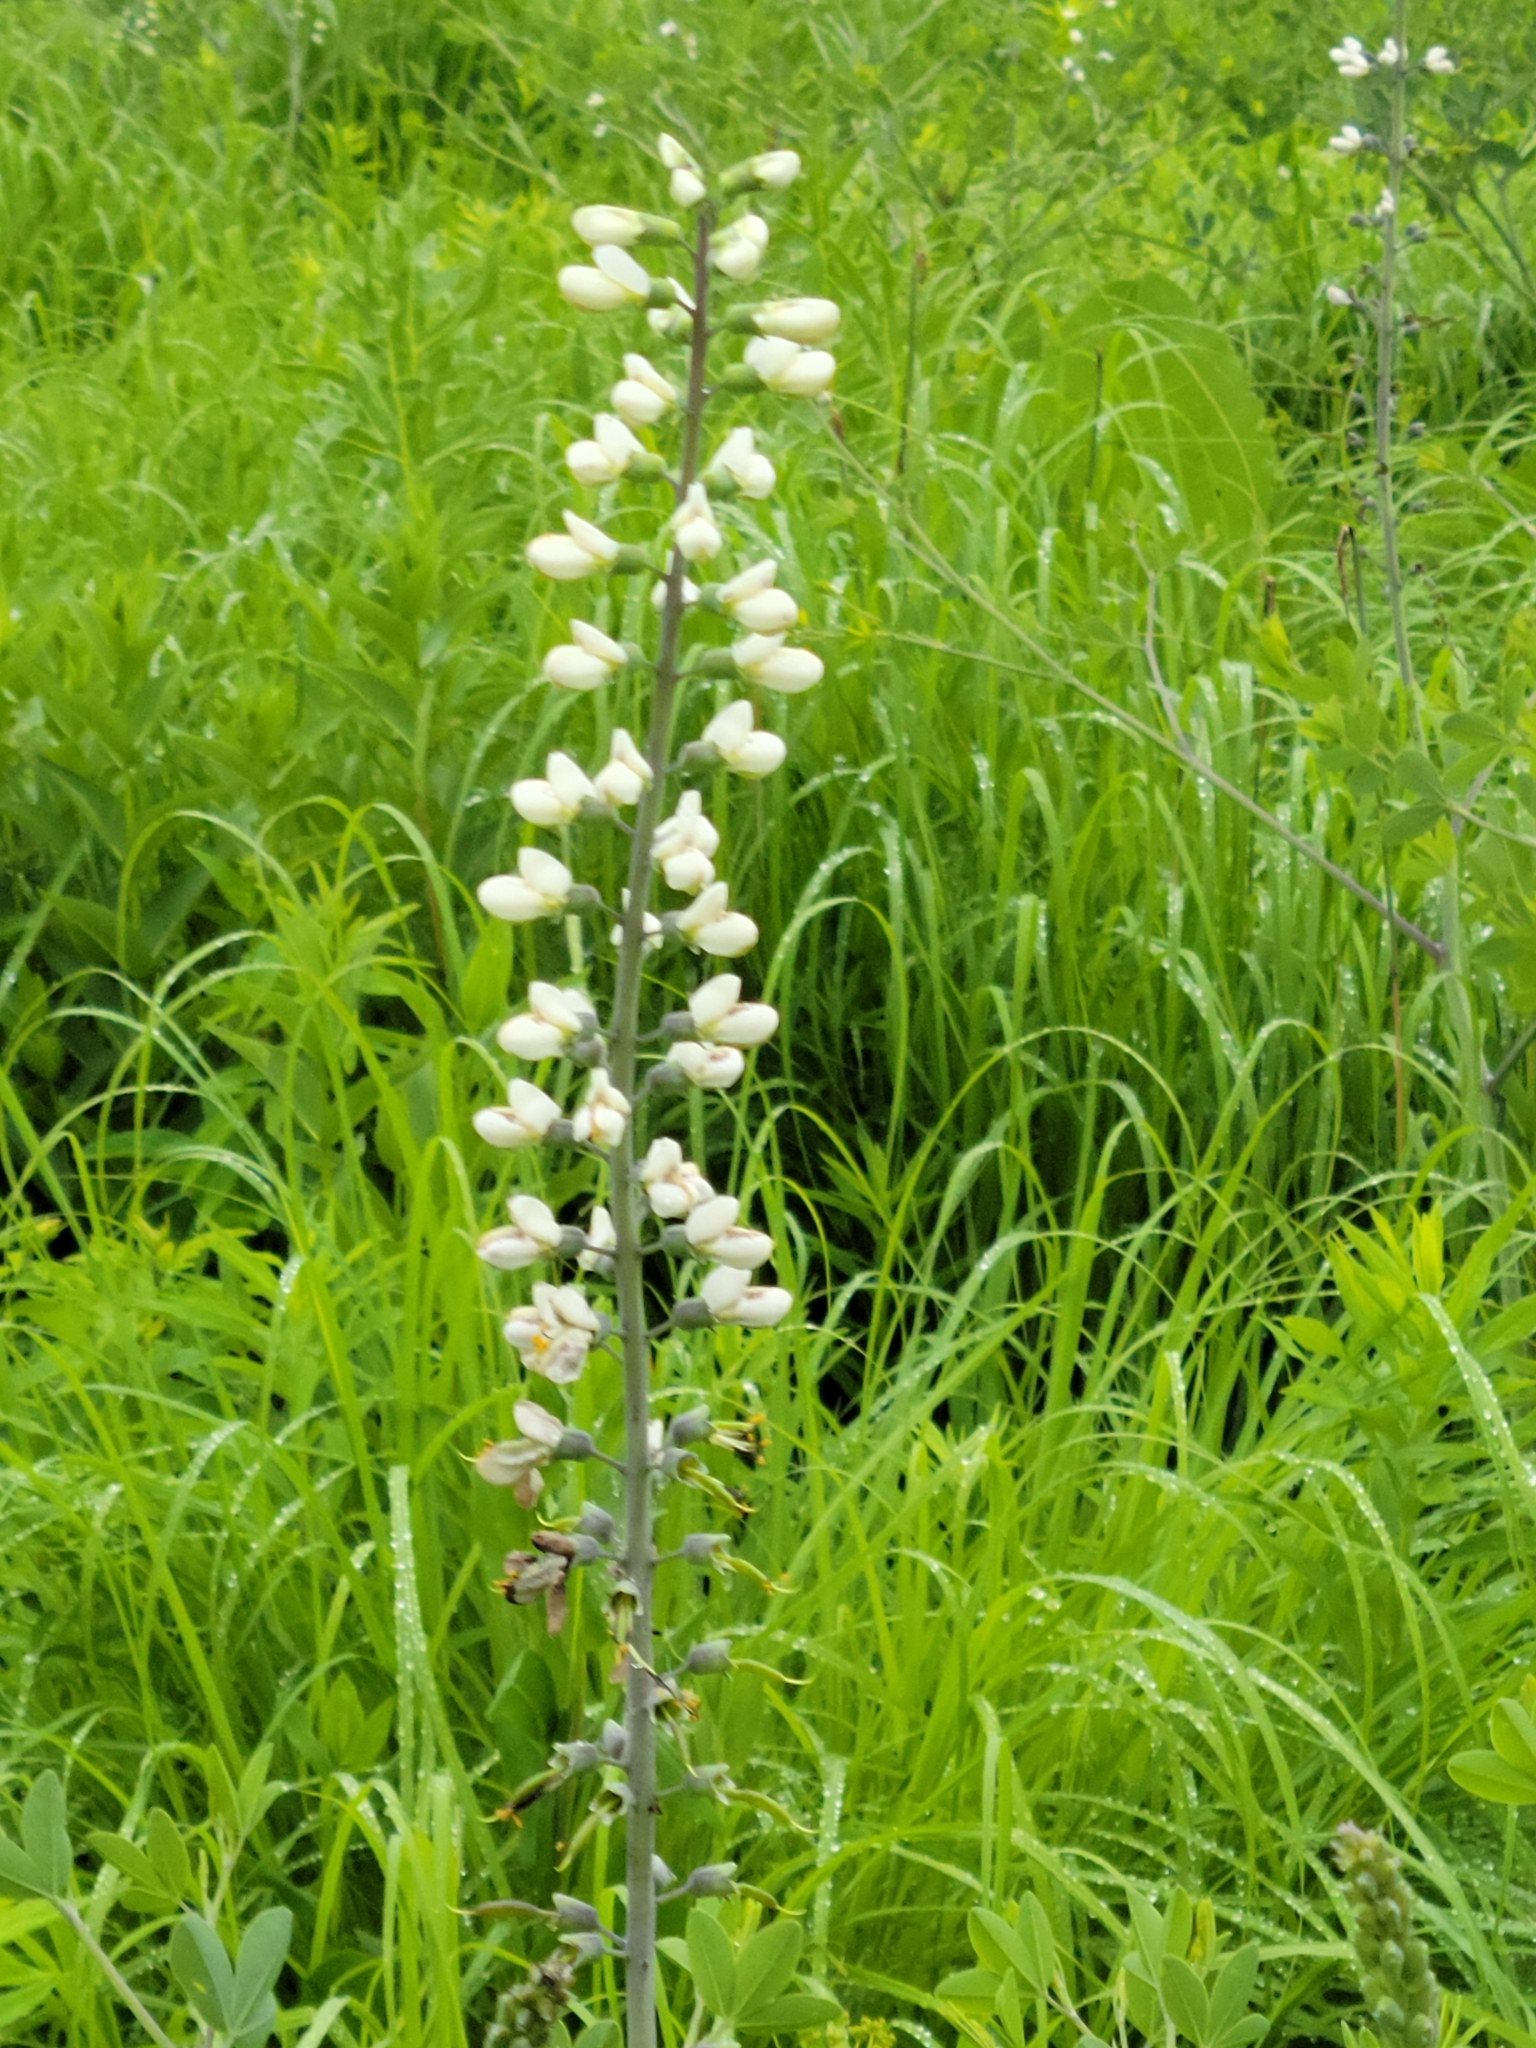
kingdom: Plantae
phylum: Tracheophyta
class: Magnoliopsida
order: Fabales
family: Fabaceae
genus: Baptisia
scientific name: Baptisia alba
